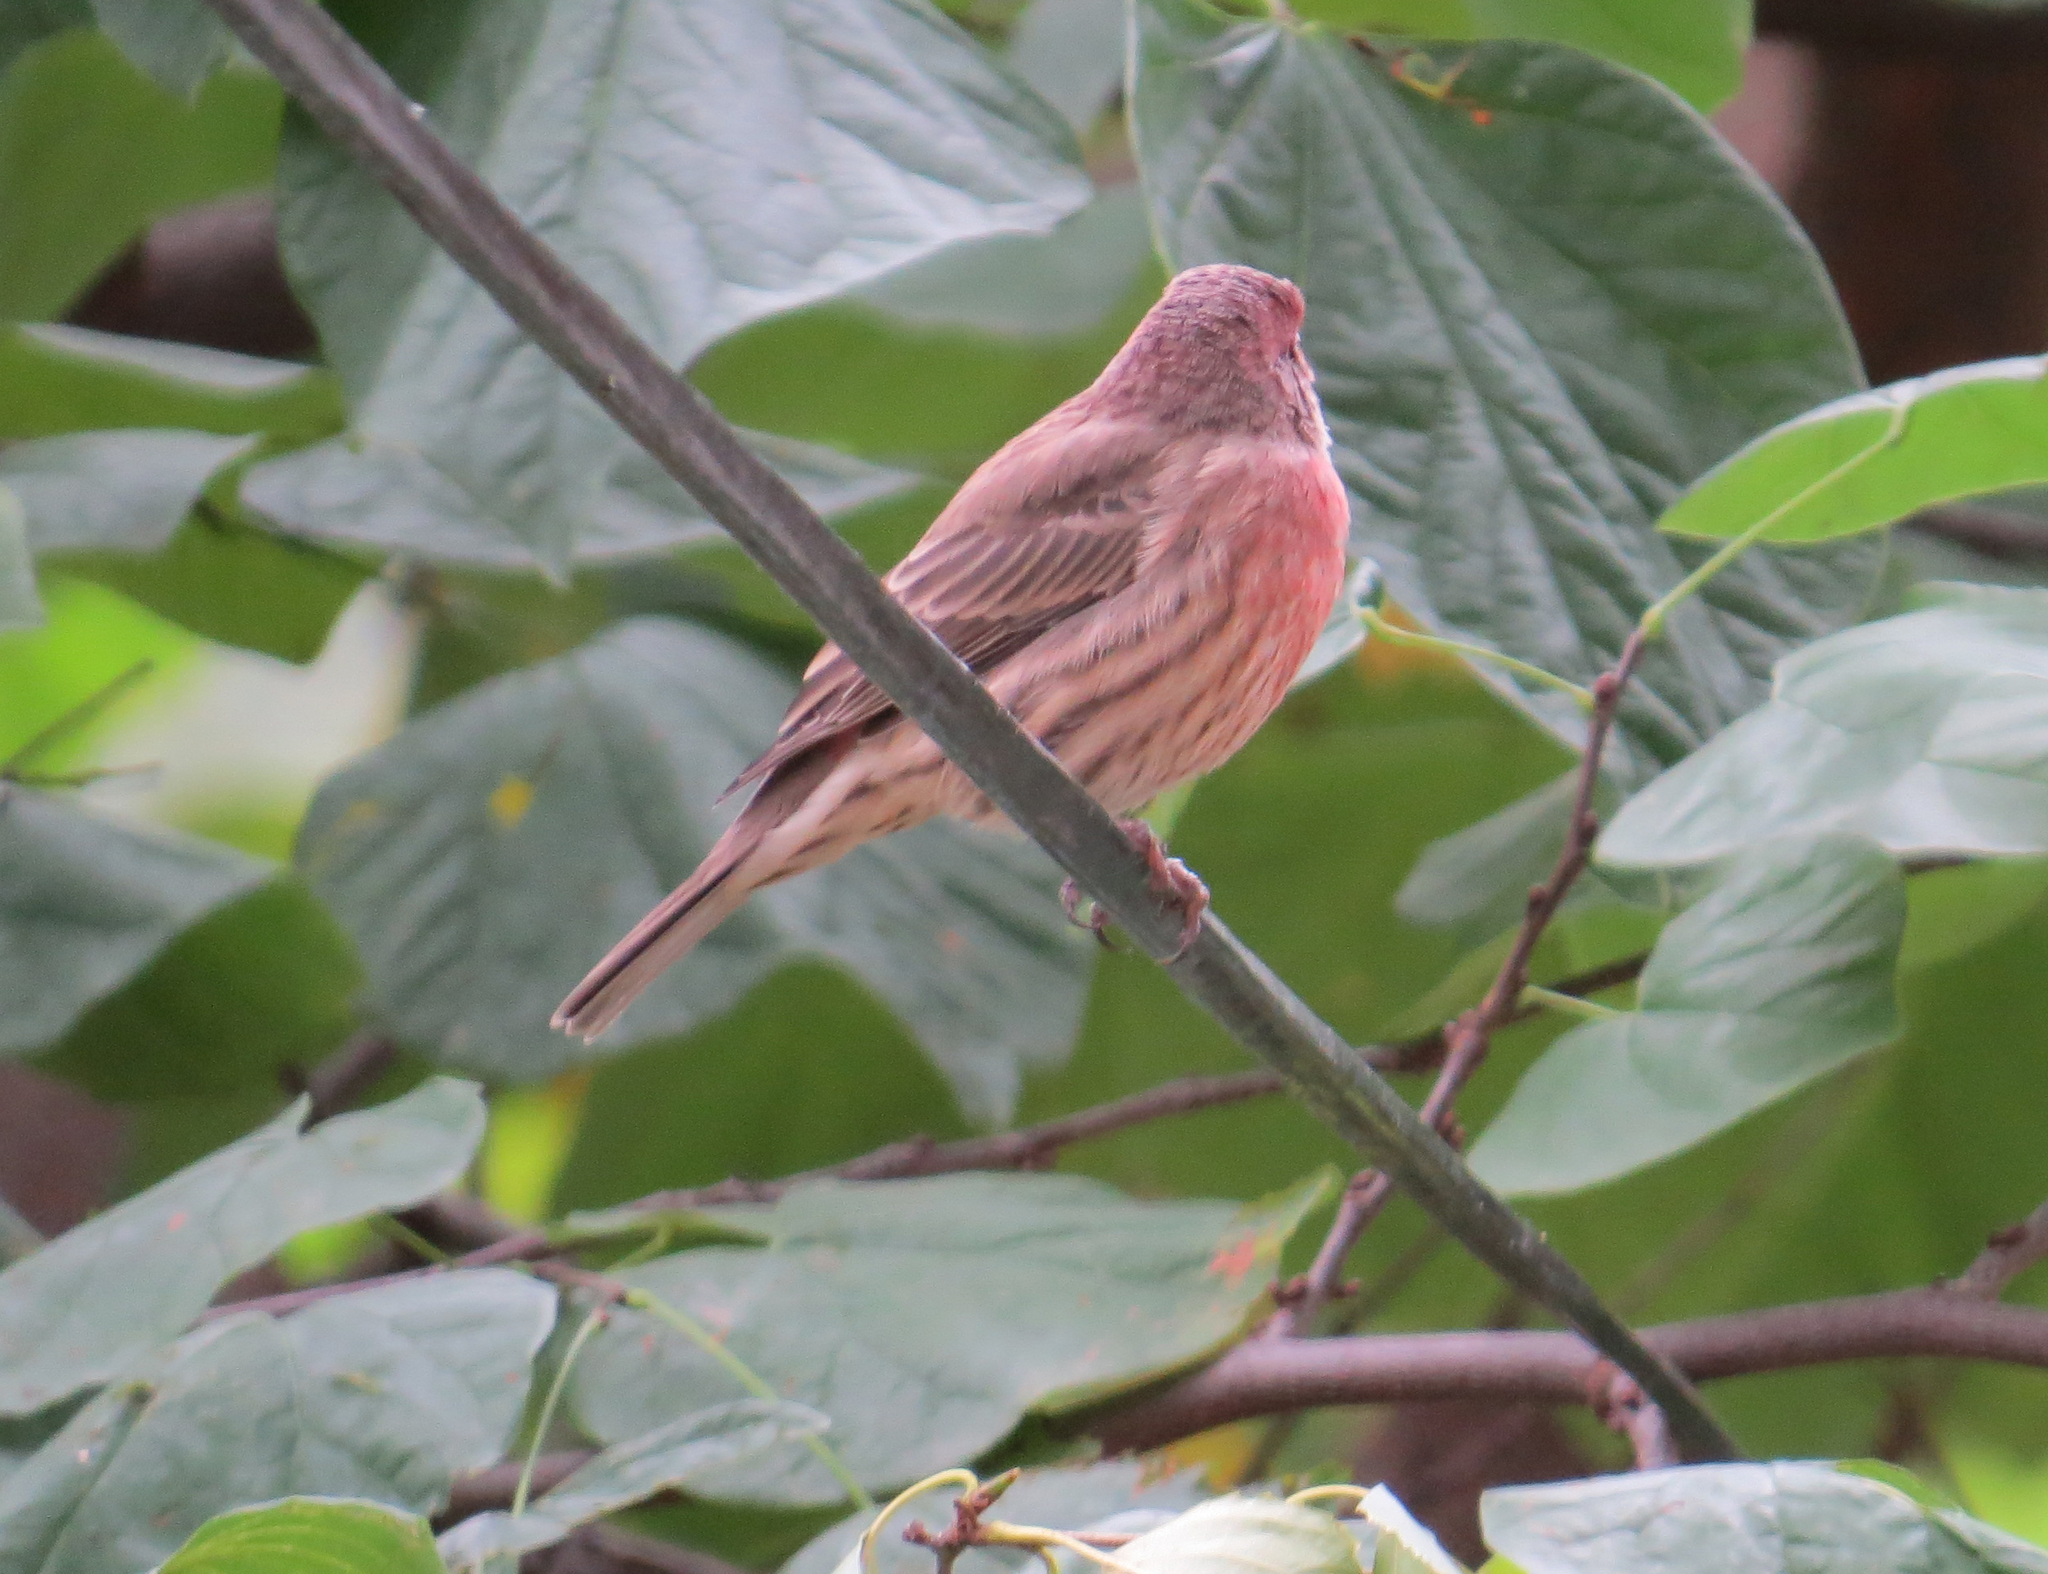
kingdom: Animalia
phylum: Chordata
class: Aves
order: Passeriformes
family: Fringillidae
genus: Haemorhous
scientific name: Haemorhous mexicanus
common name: House finch
